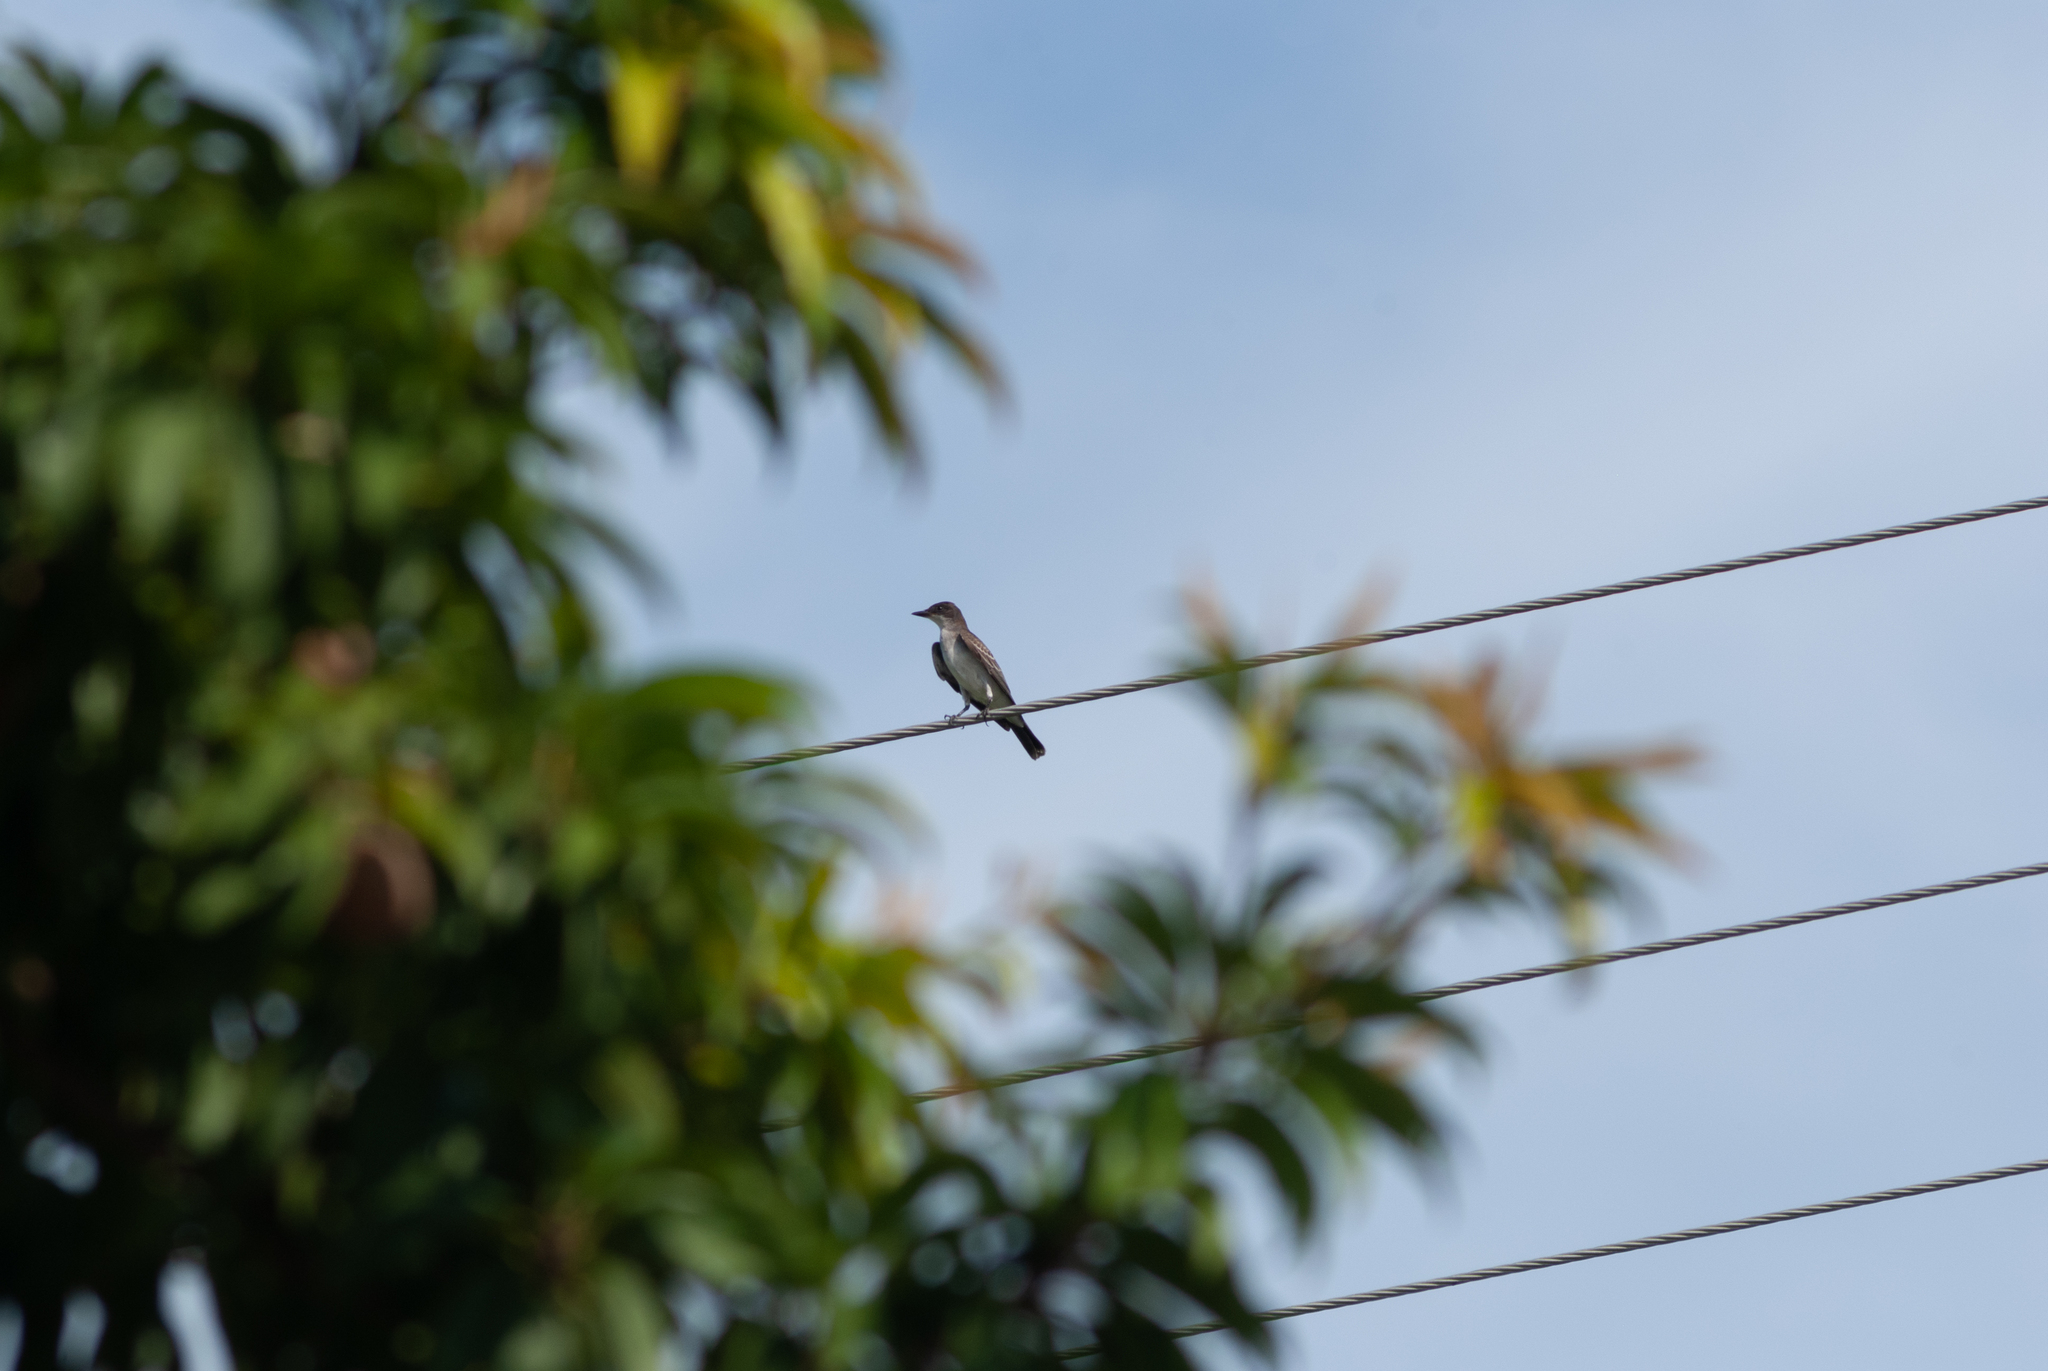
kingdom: Animalia
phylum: Chordata
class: Aves
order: Passeriformes
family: Tyrannidae
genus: Tyrannus
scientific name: Tyrannus tyrannus
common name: Eastern kingbird
